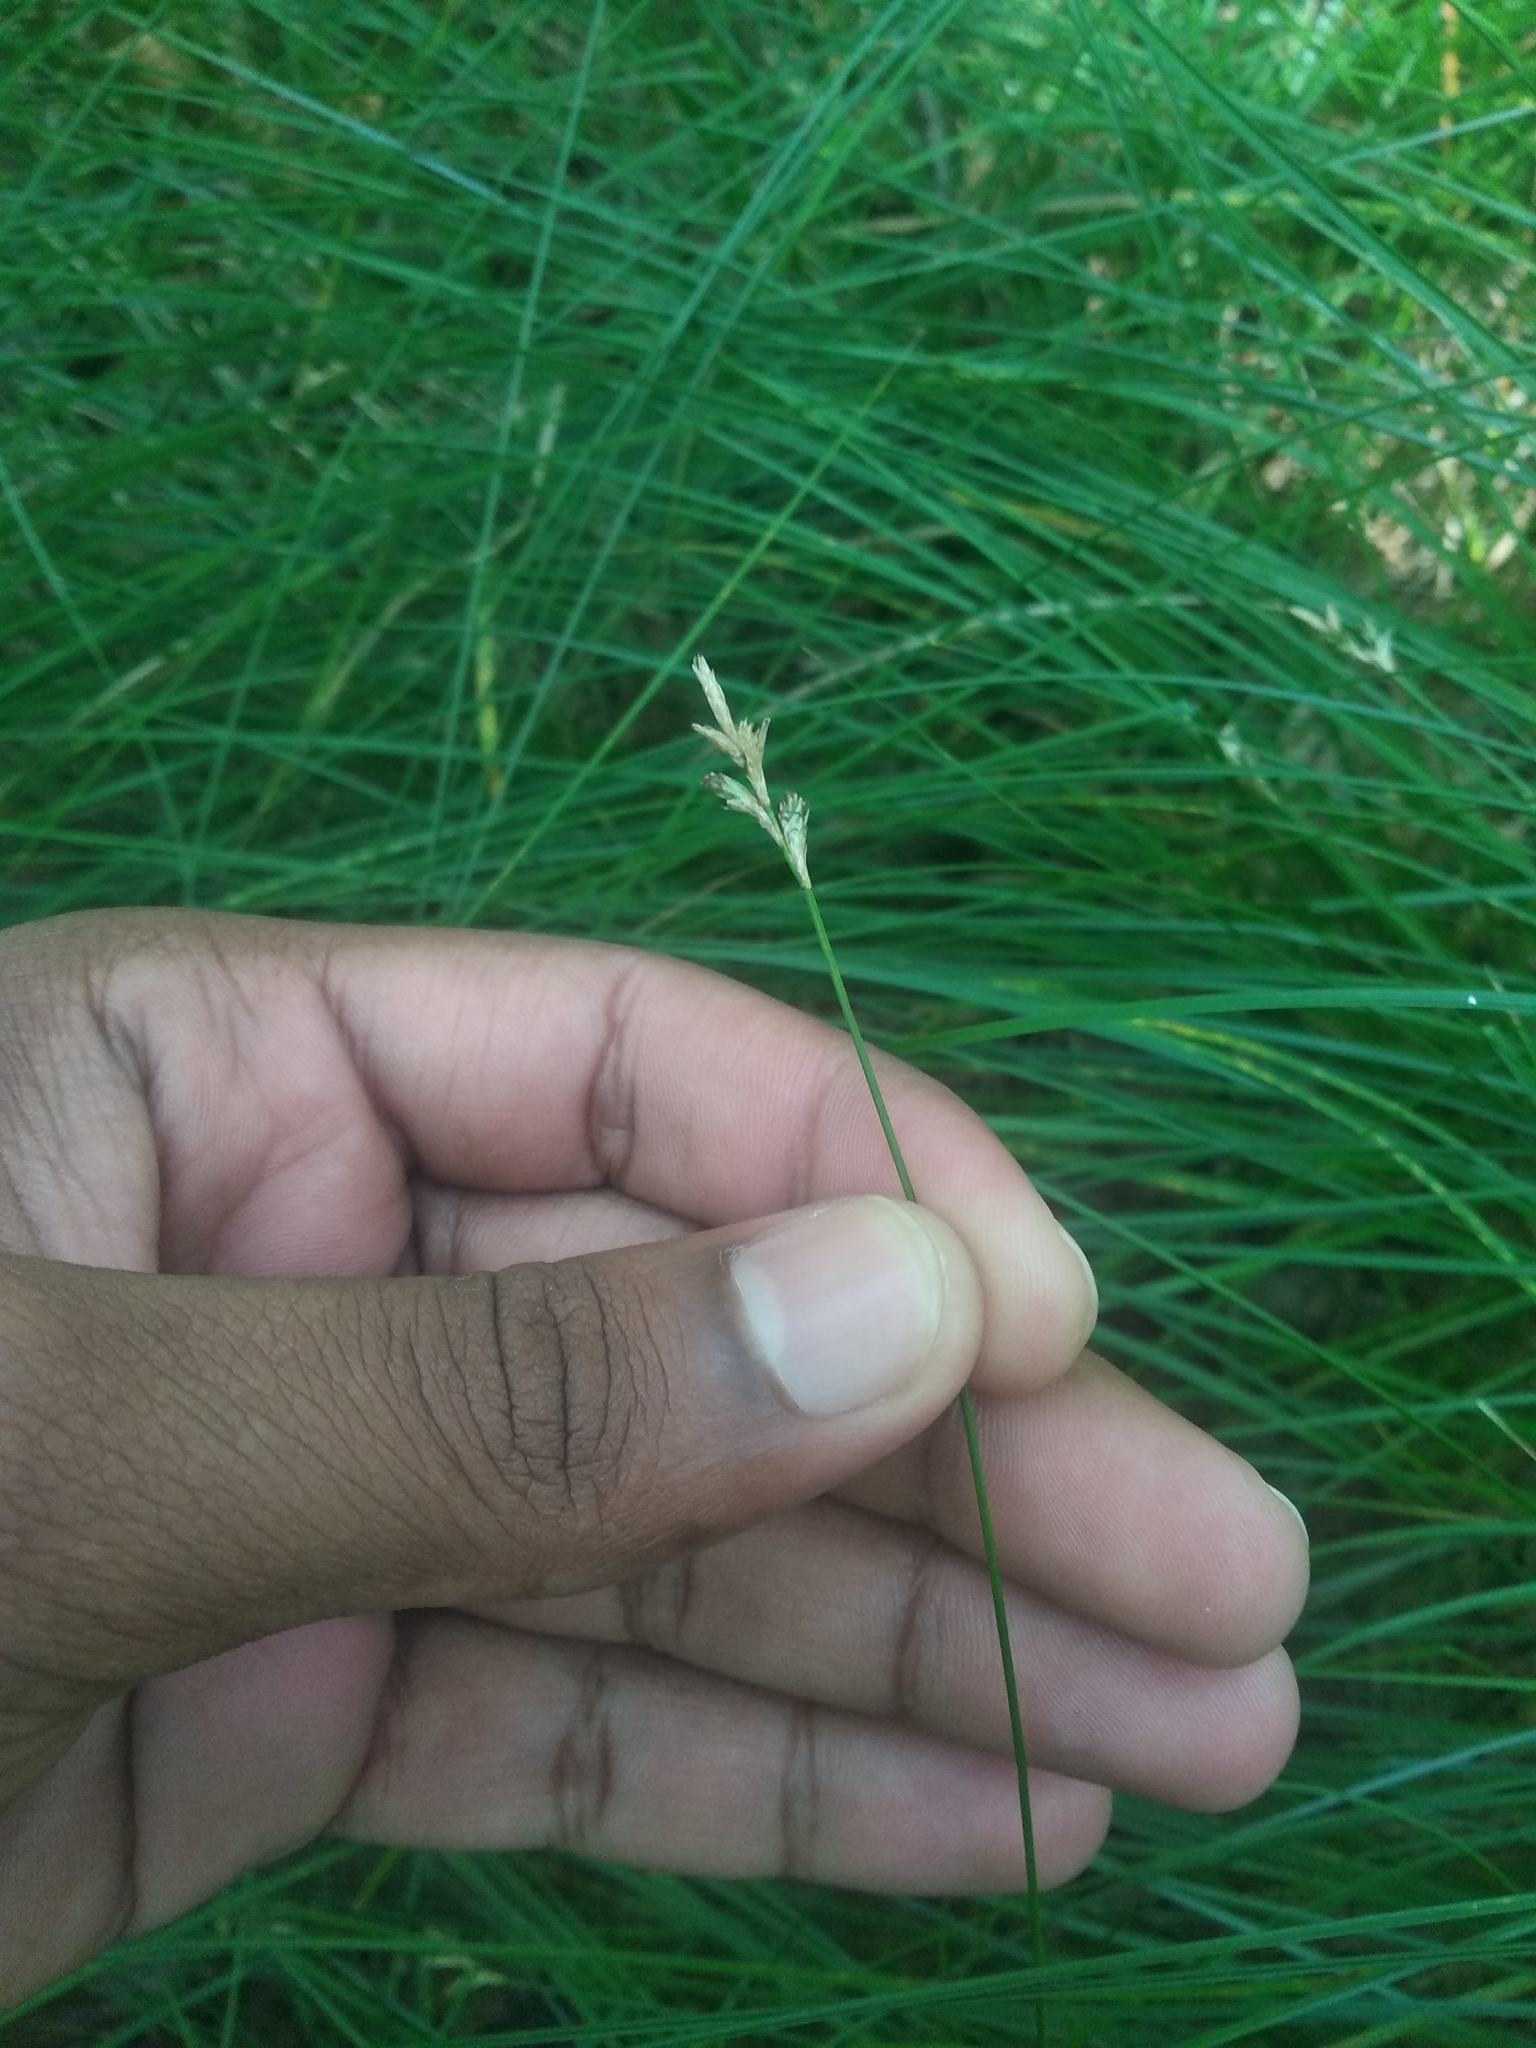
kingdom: Plantae
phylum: Tracheophyta
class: Liliopsida
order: Poales
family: Cyperaceae
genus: Carex
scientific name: Carex brizoides
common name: Quaking-grass sedge
